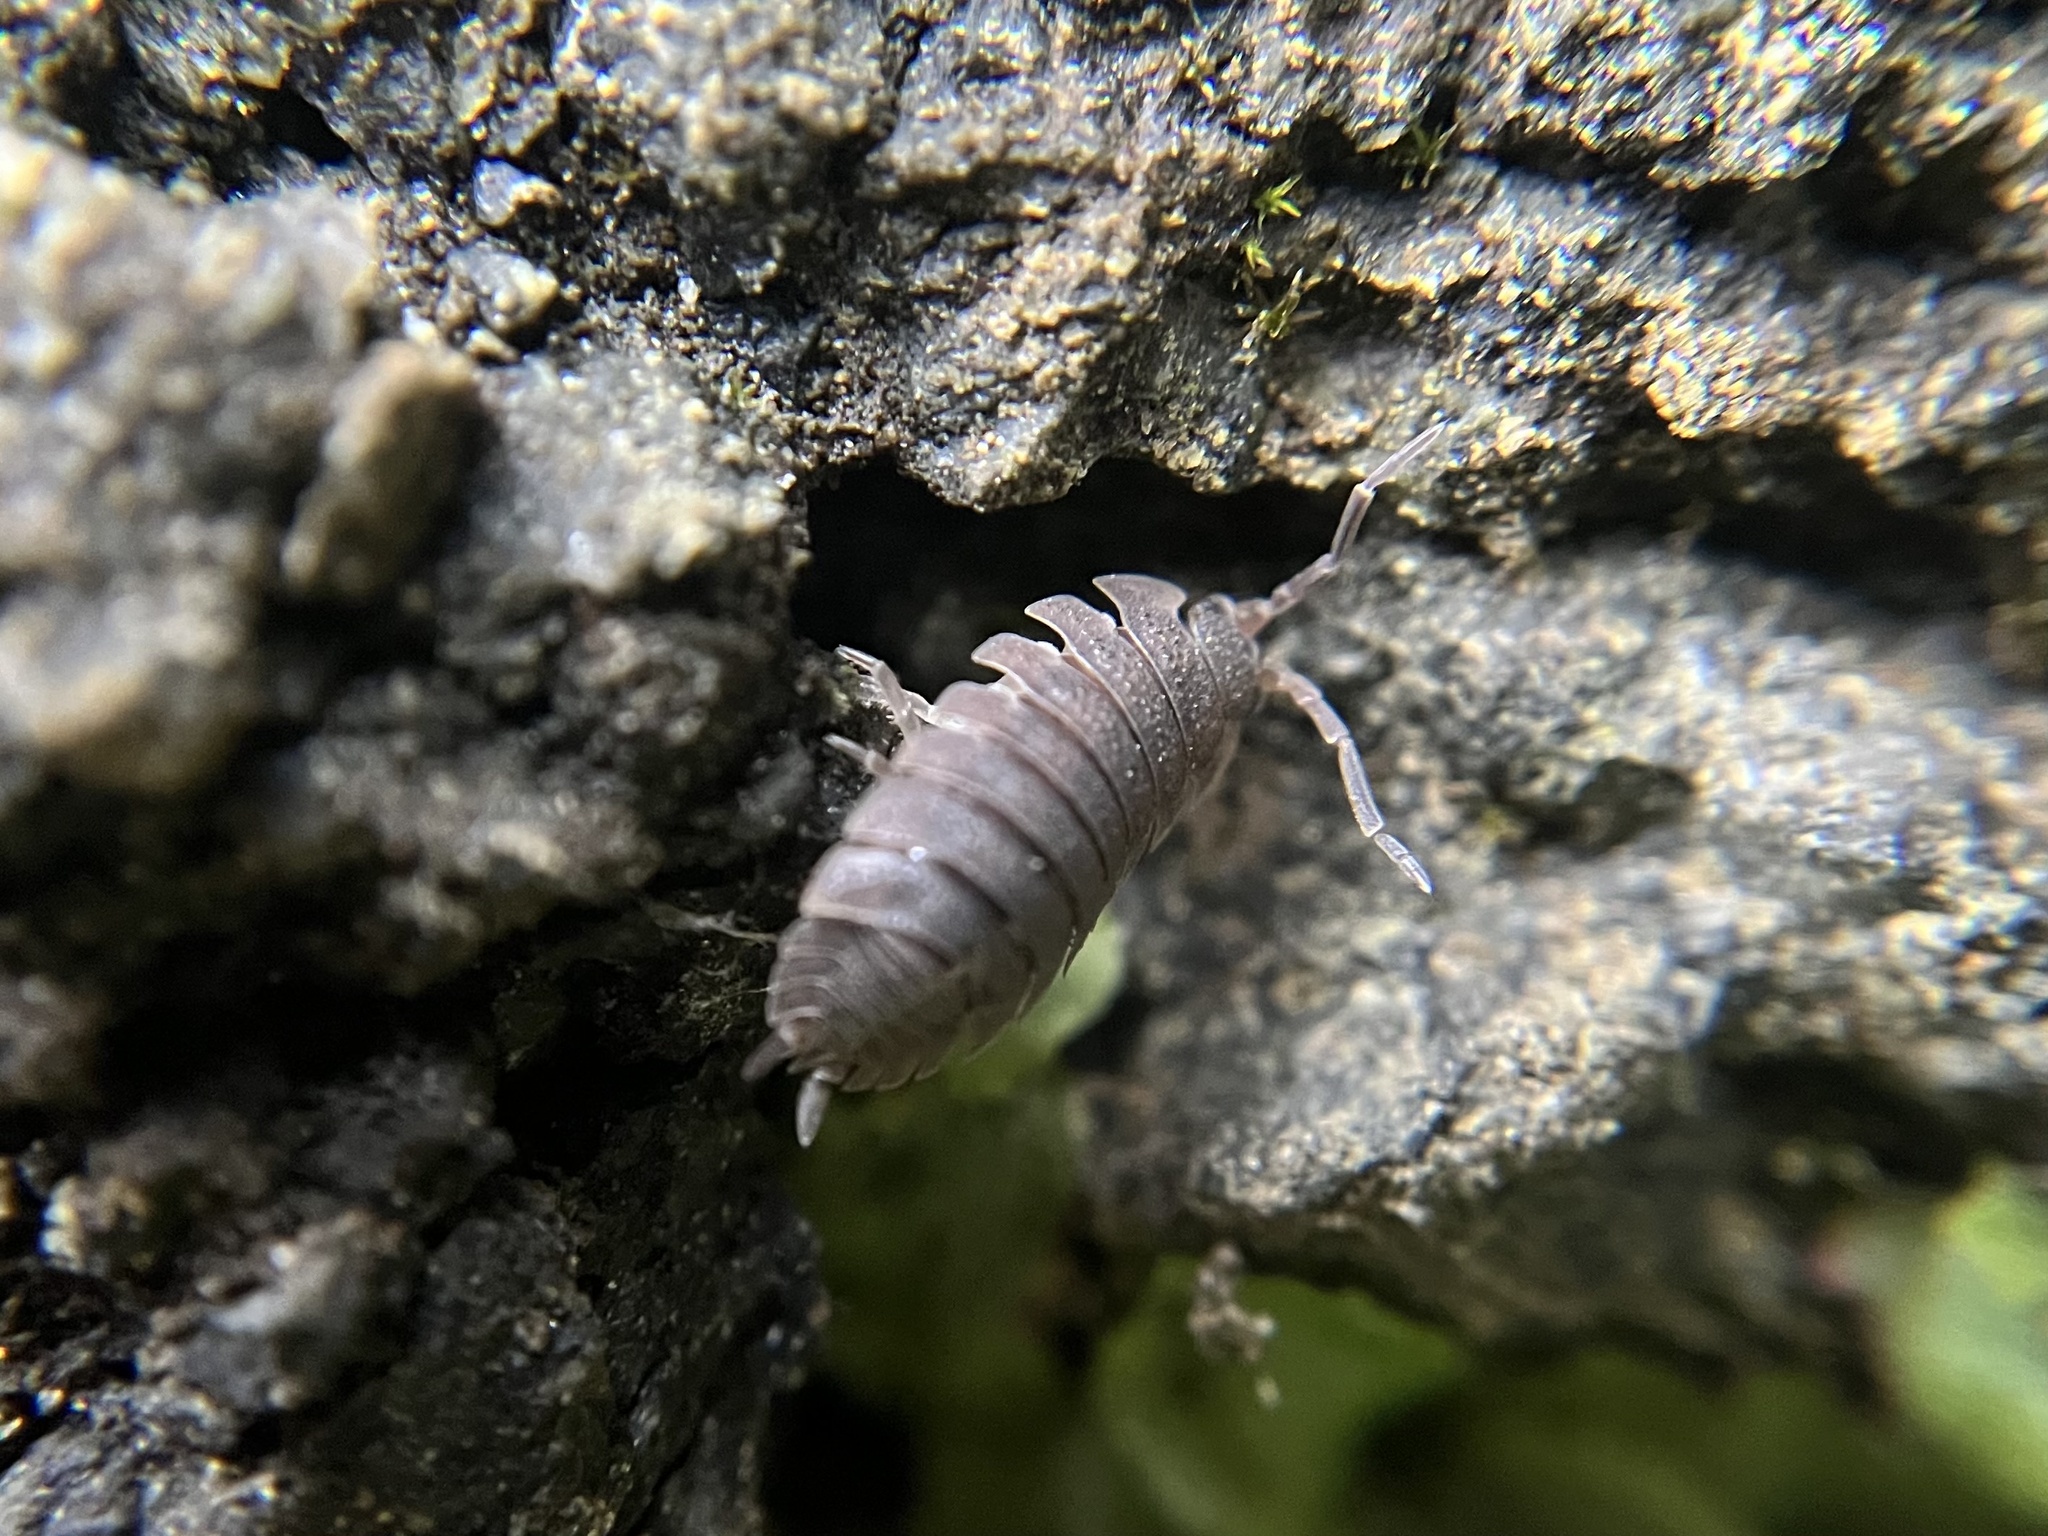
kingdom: Animalia
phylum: Arthropoda
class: Malacostraca
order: Isopoda
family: Porcellionidae
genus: Porcellio
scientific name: Porcellio scaber
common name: Common rough woodlouse
